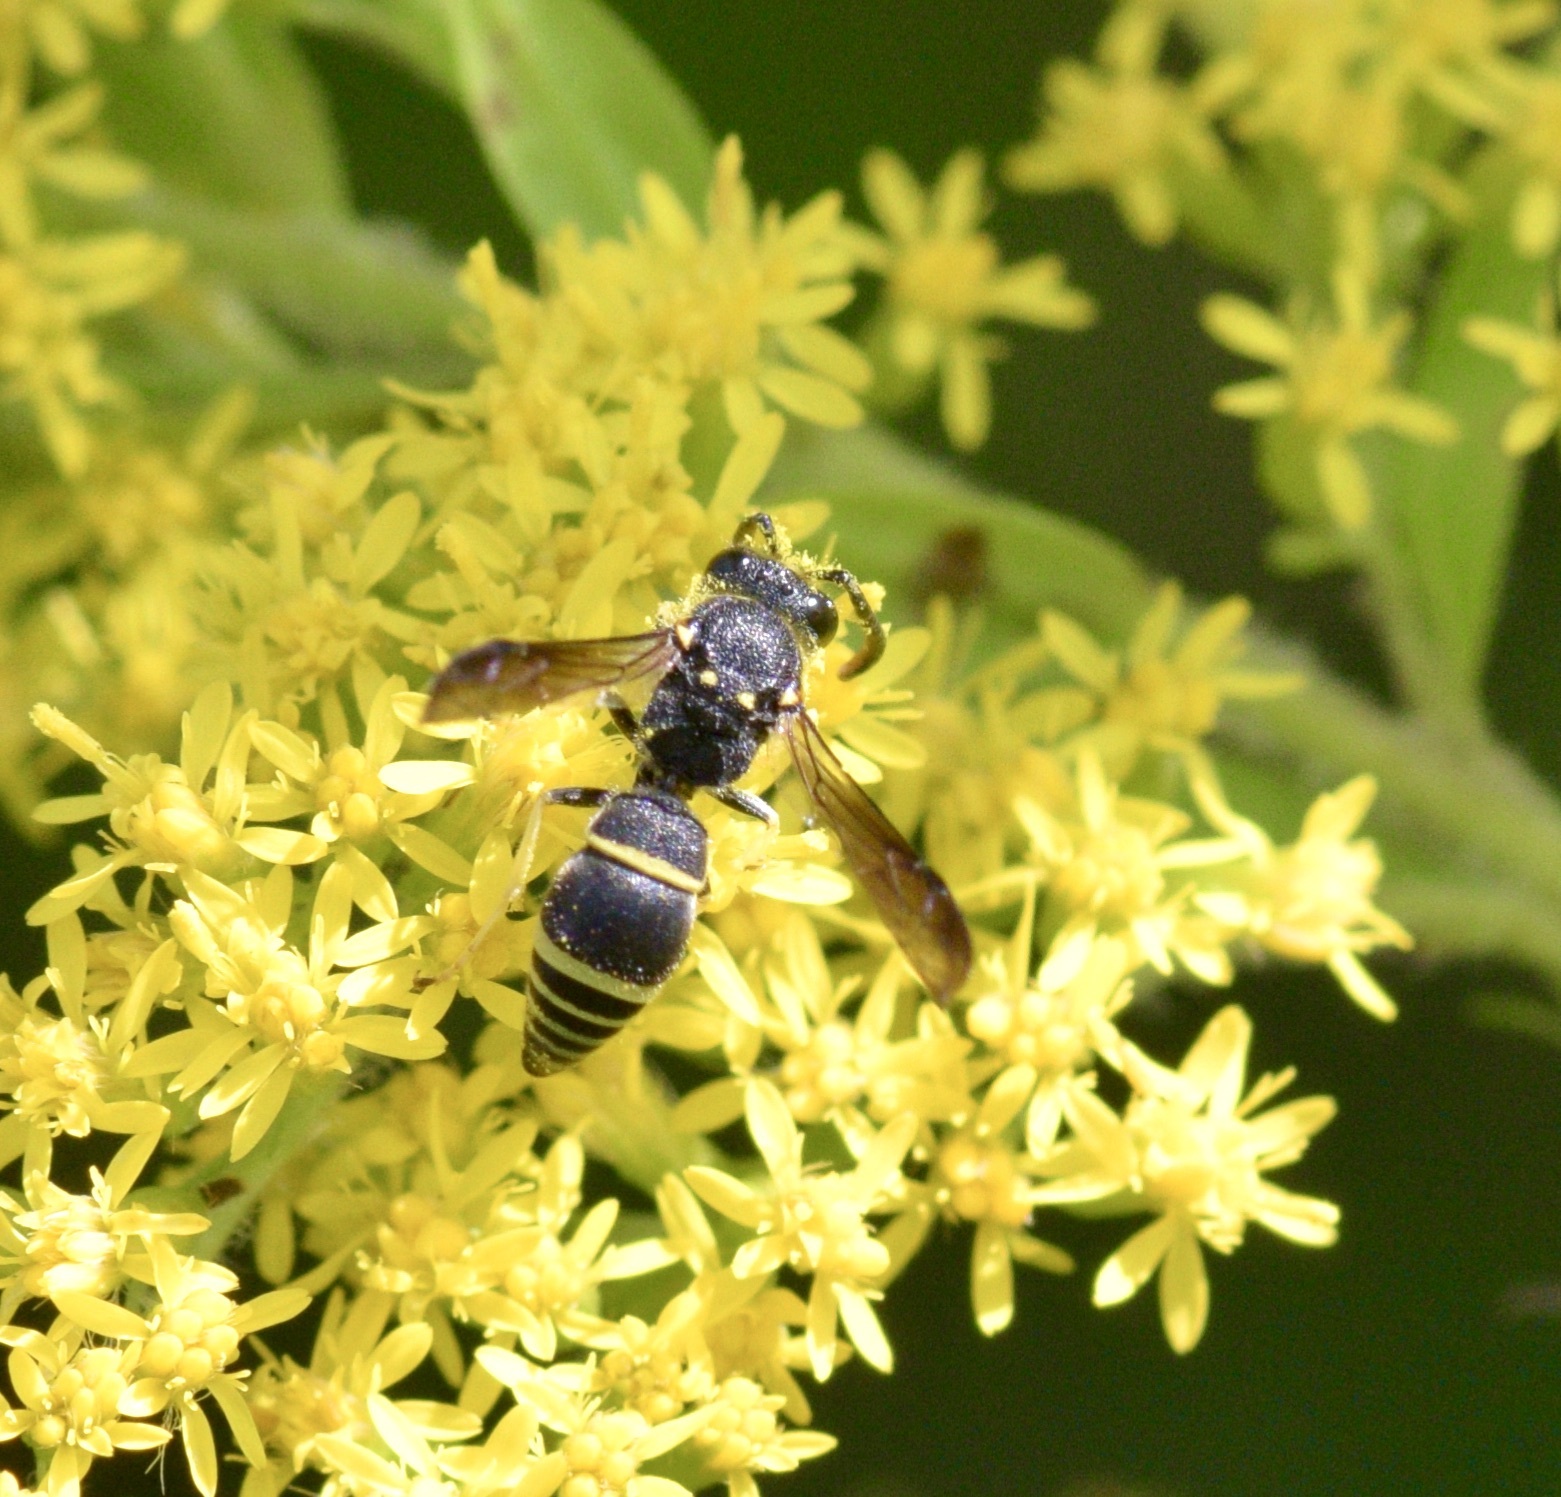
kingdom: Animalia
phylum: Arthropoda
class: Insecta
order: Hymenoptera
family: Vespidae
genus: Ancistrocerus
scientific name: Ancistrocerus adiabatus
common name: Bramble mason wasp
